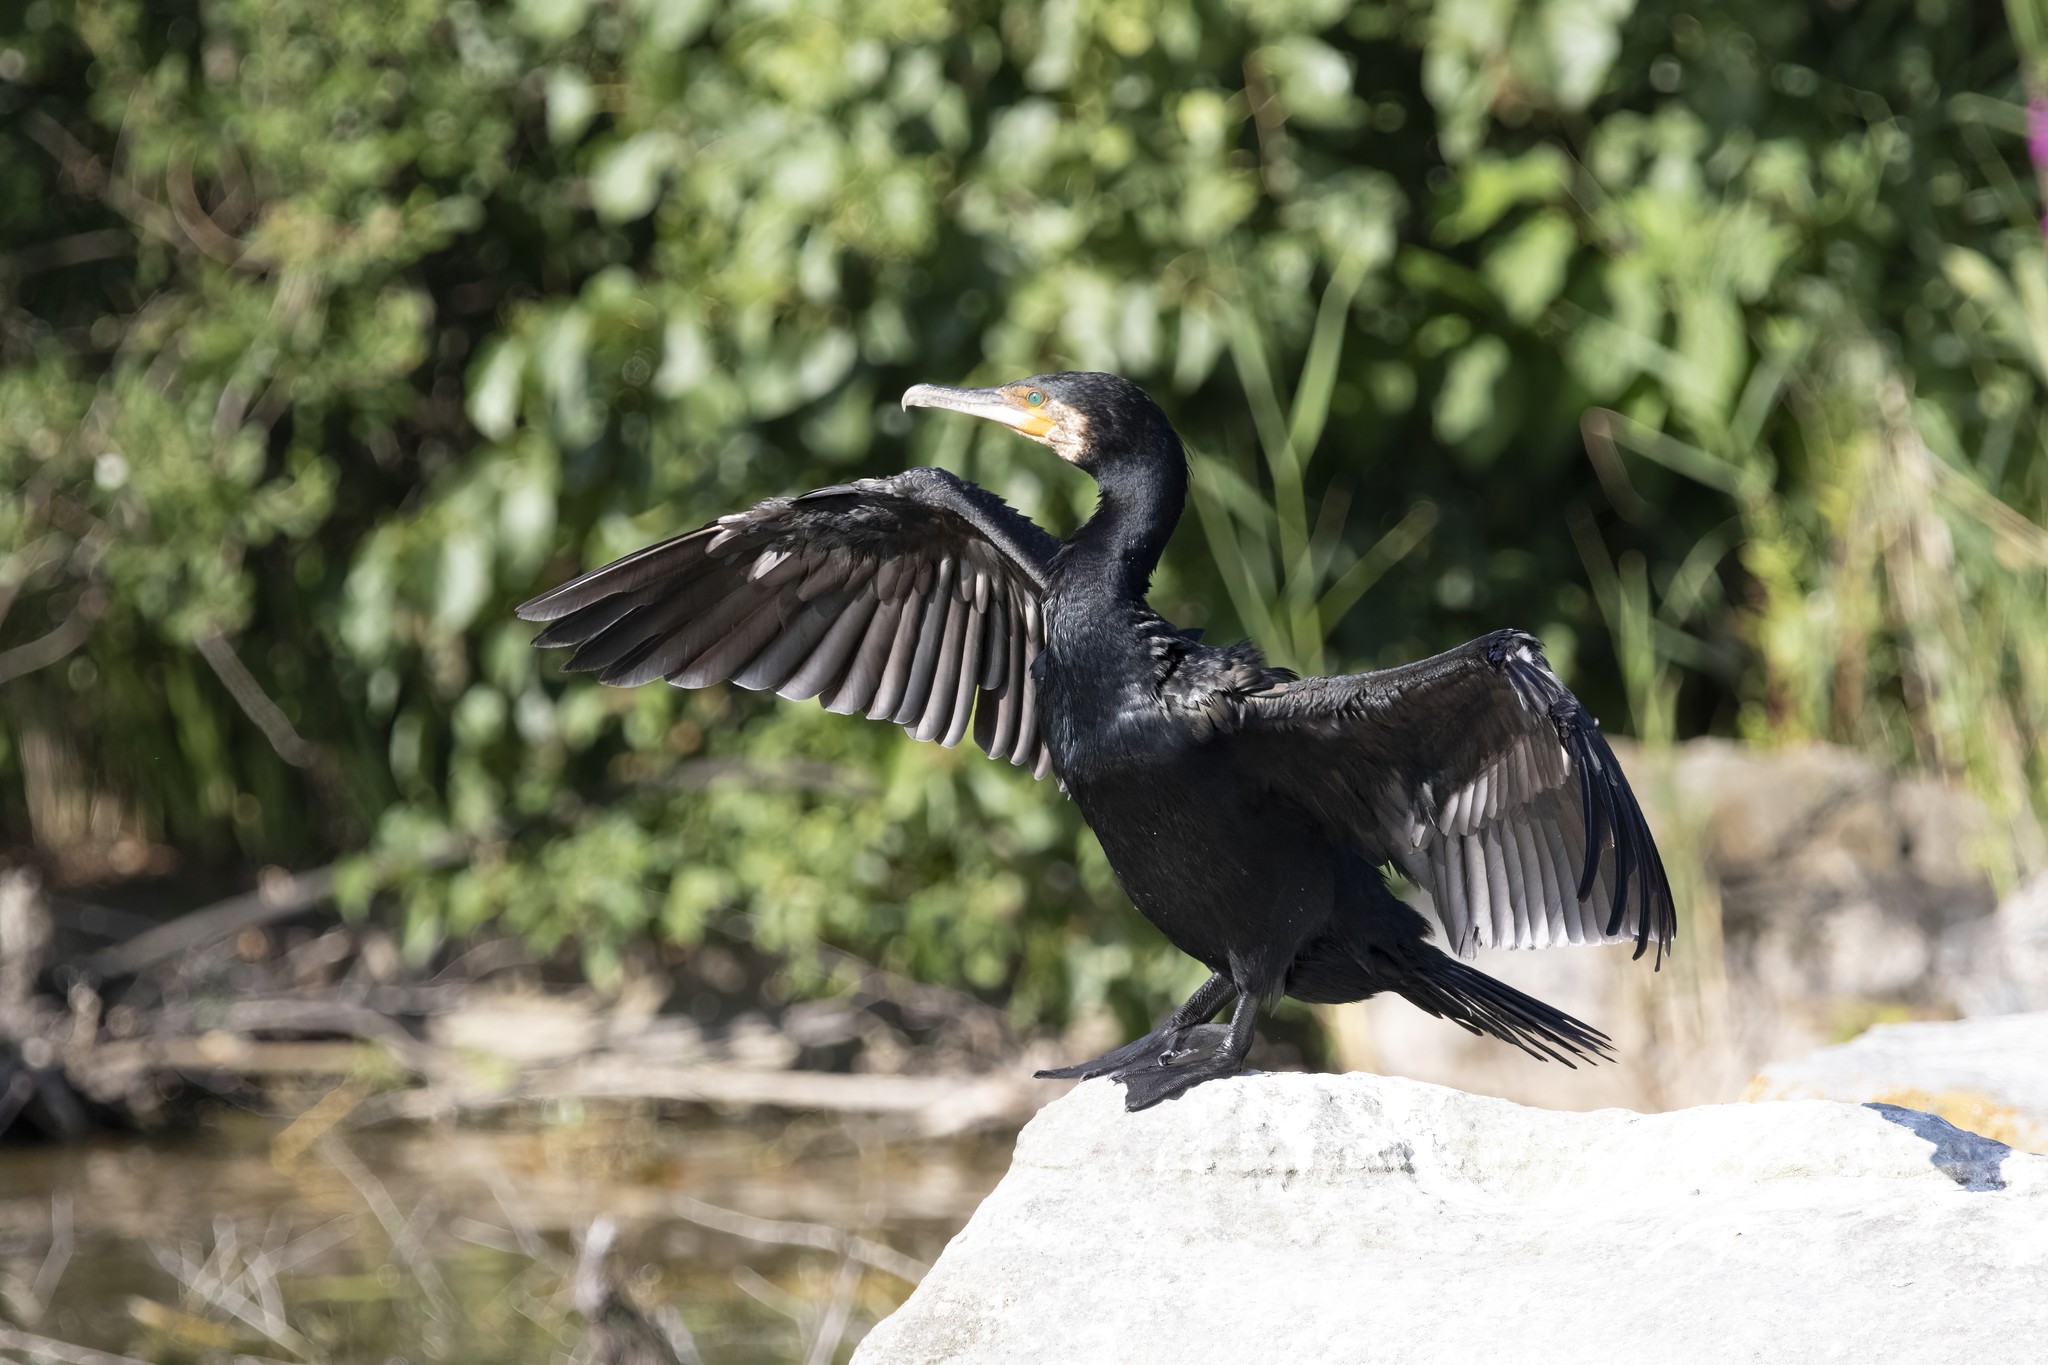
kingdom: Animalia
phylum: Chordata
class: Aves
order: Suliformes
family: Phalacrocoracidae
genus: Phalacrocorax
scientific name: Phalacrocorax carbo
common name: Great cormorant
